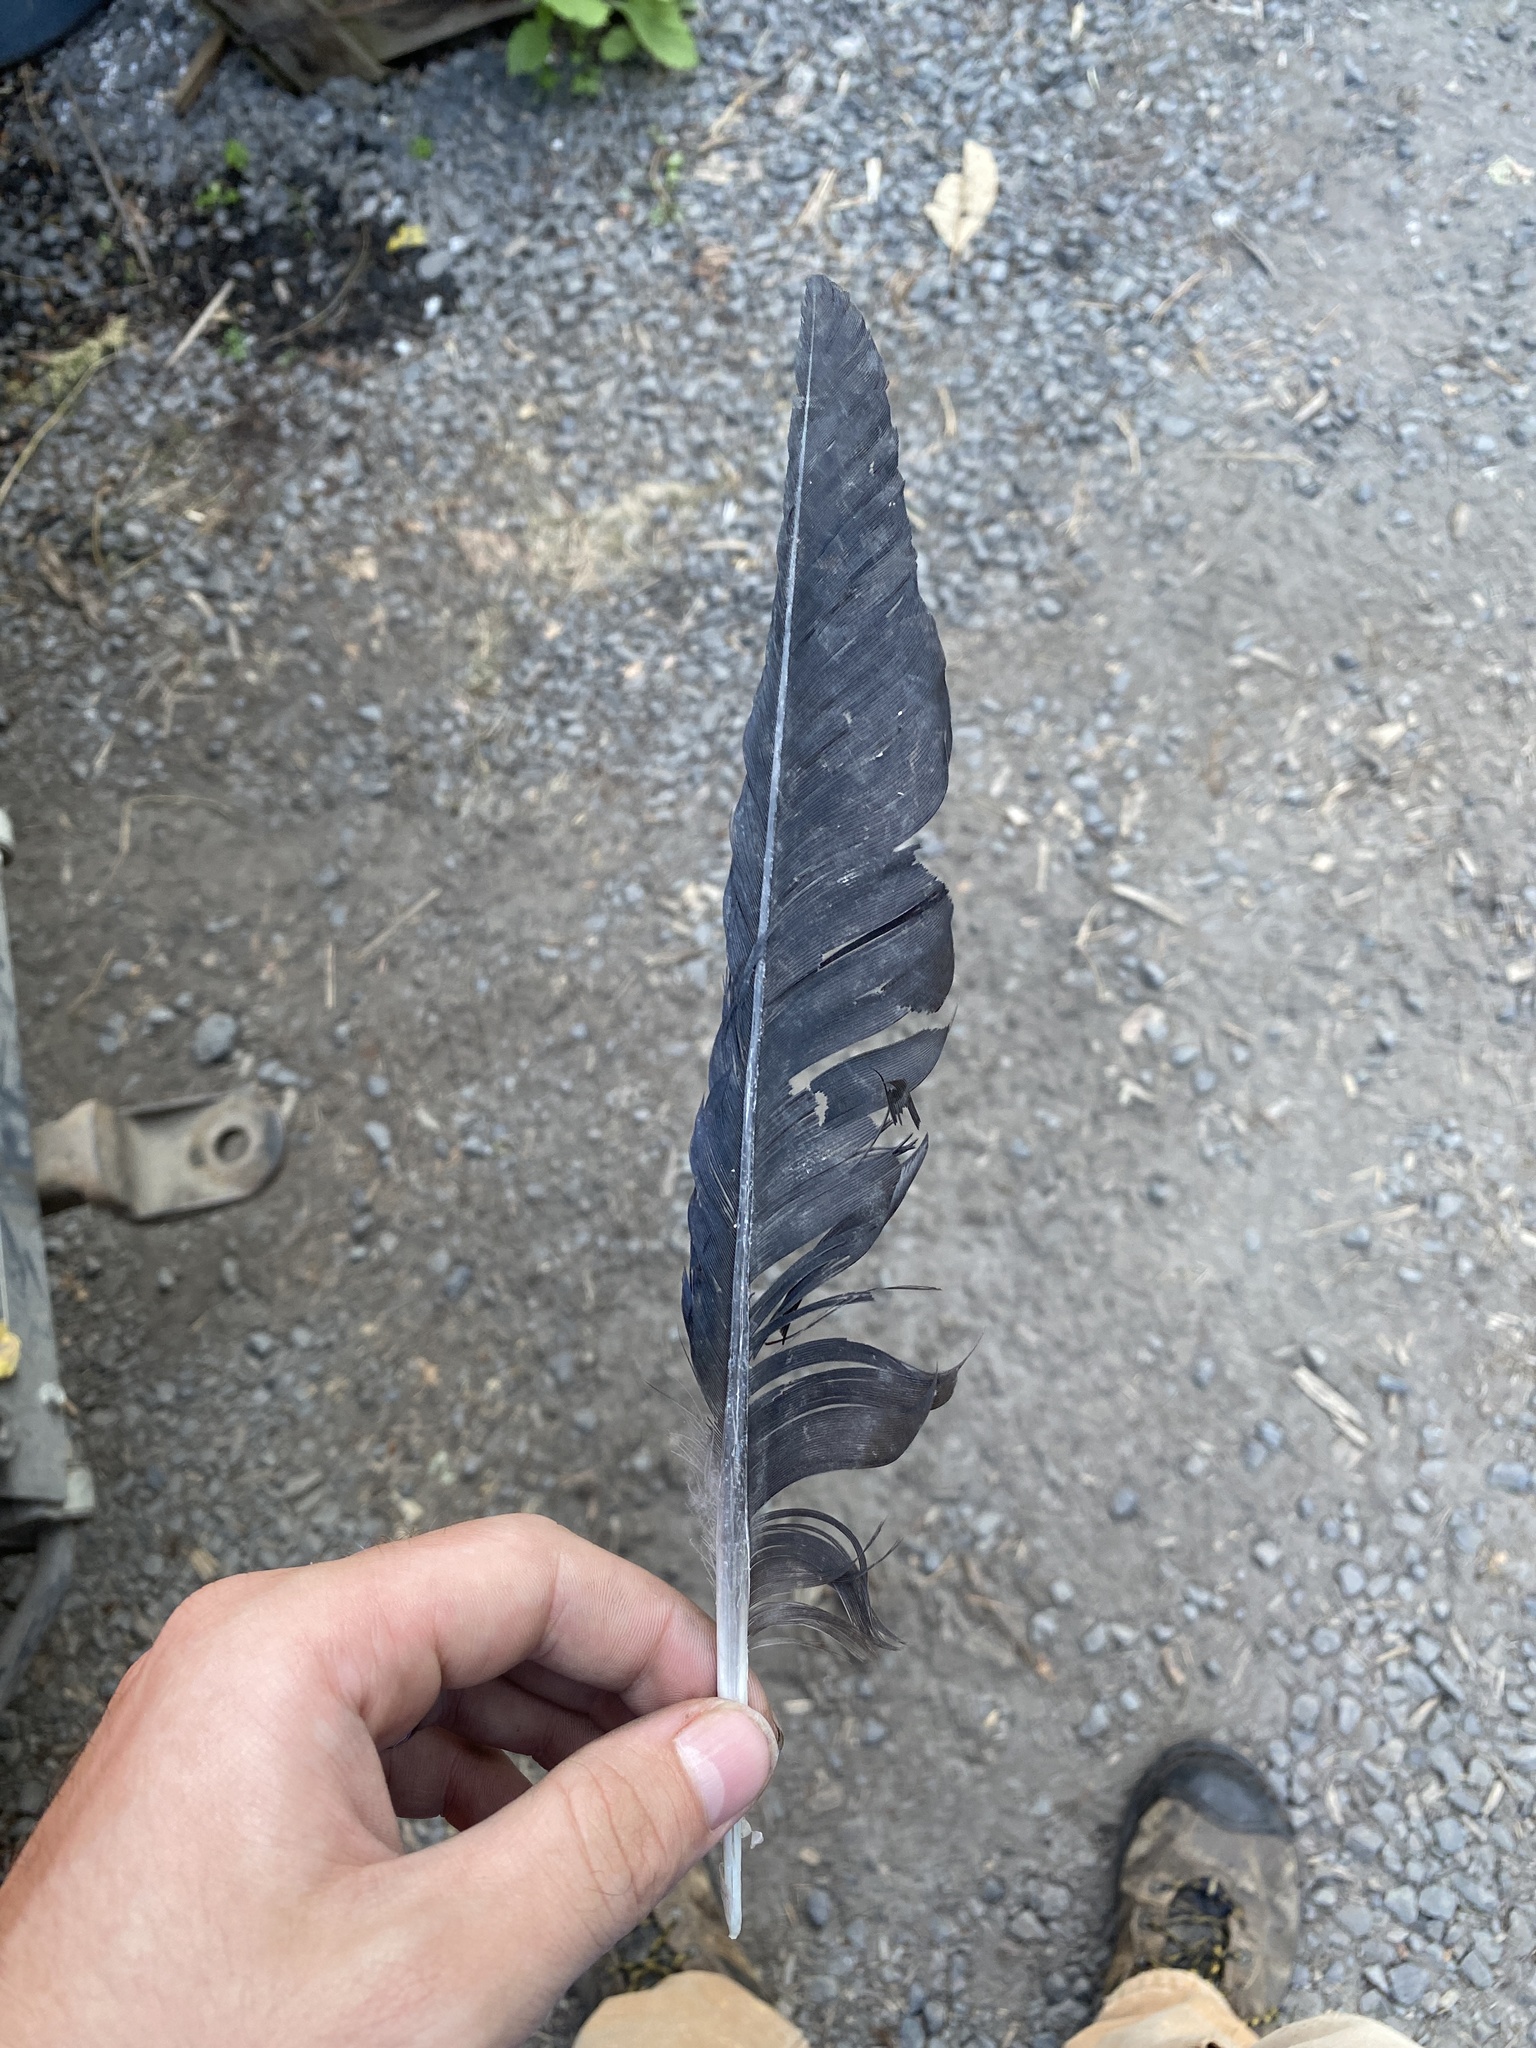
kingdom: Animalia
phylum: Chordata
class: Aves
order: Passeriformes
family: Corvidae
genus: Corvus
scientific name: Corvus brachyrhynchos
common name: American crow
